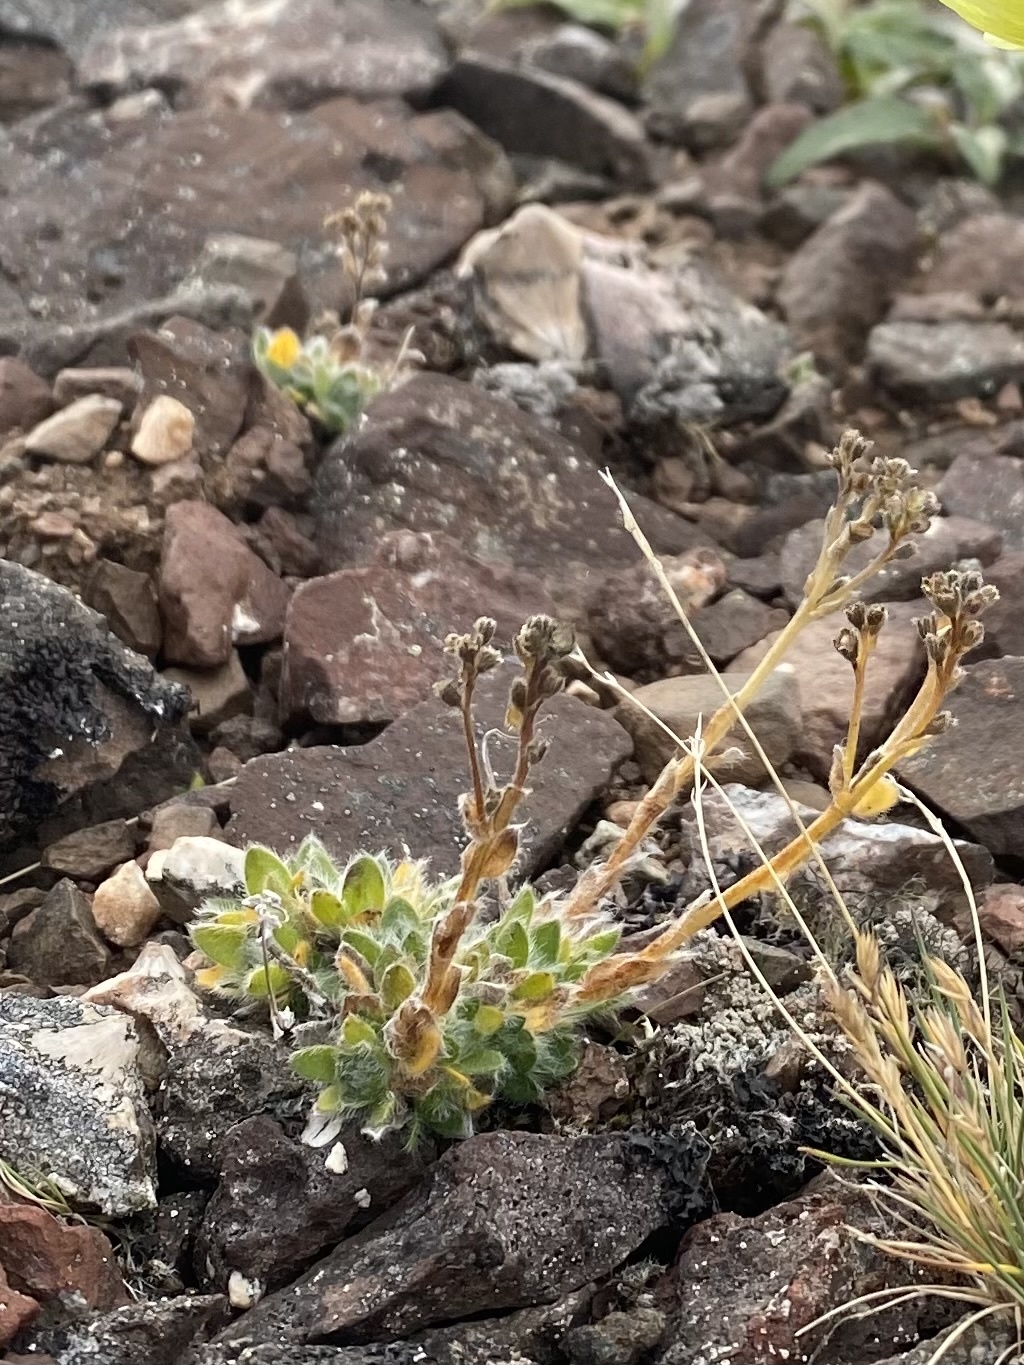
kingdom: Plantae
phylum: Tracheophyta
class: Magnoliopsida
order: Boraginales
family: Boraginaceae
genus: Eritrichium
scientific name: Eritrichium villosum
